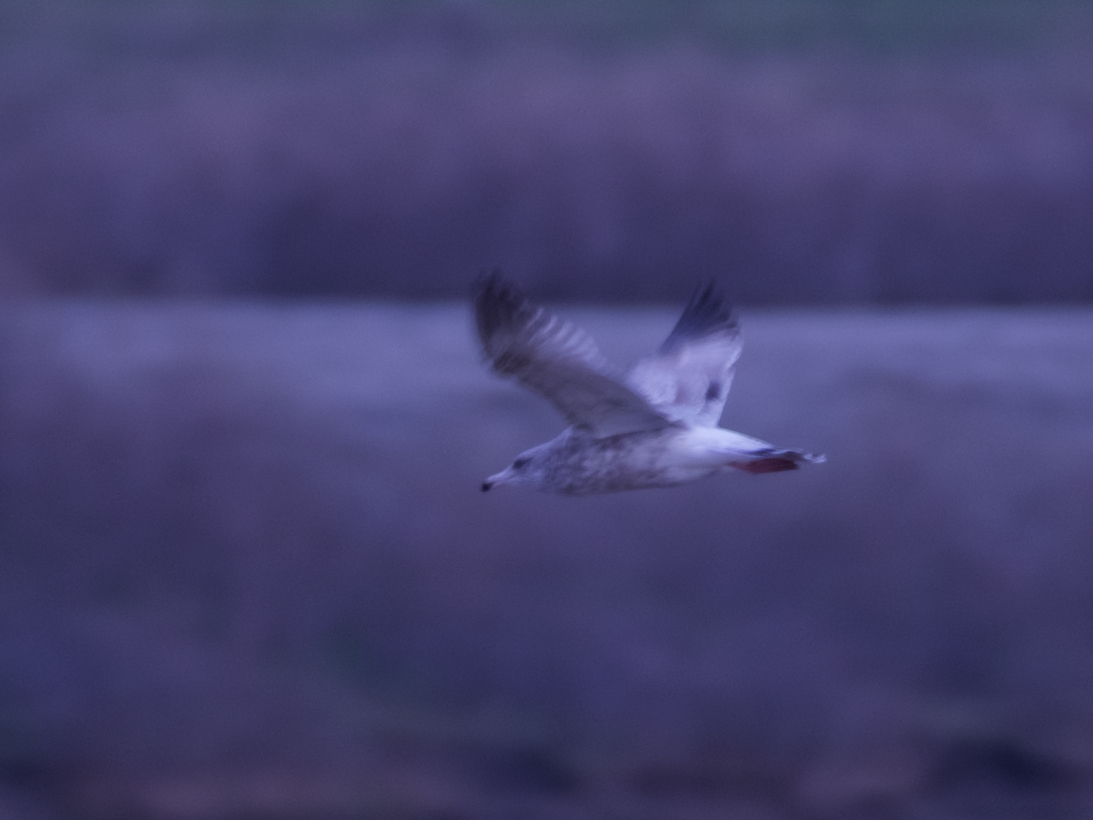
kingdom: Animalia
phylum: Chordata
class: Aves
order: Charadriiformes
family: Laridae
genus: Larus
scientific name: Larus argentatus
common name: Herring gull
